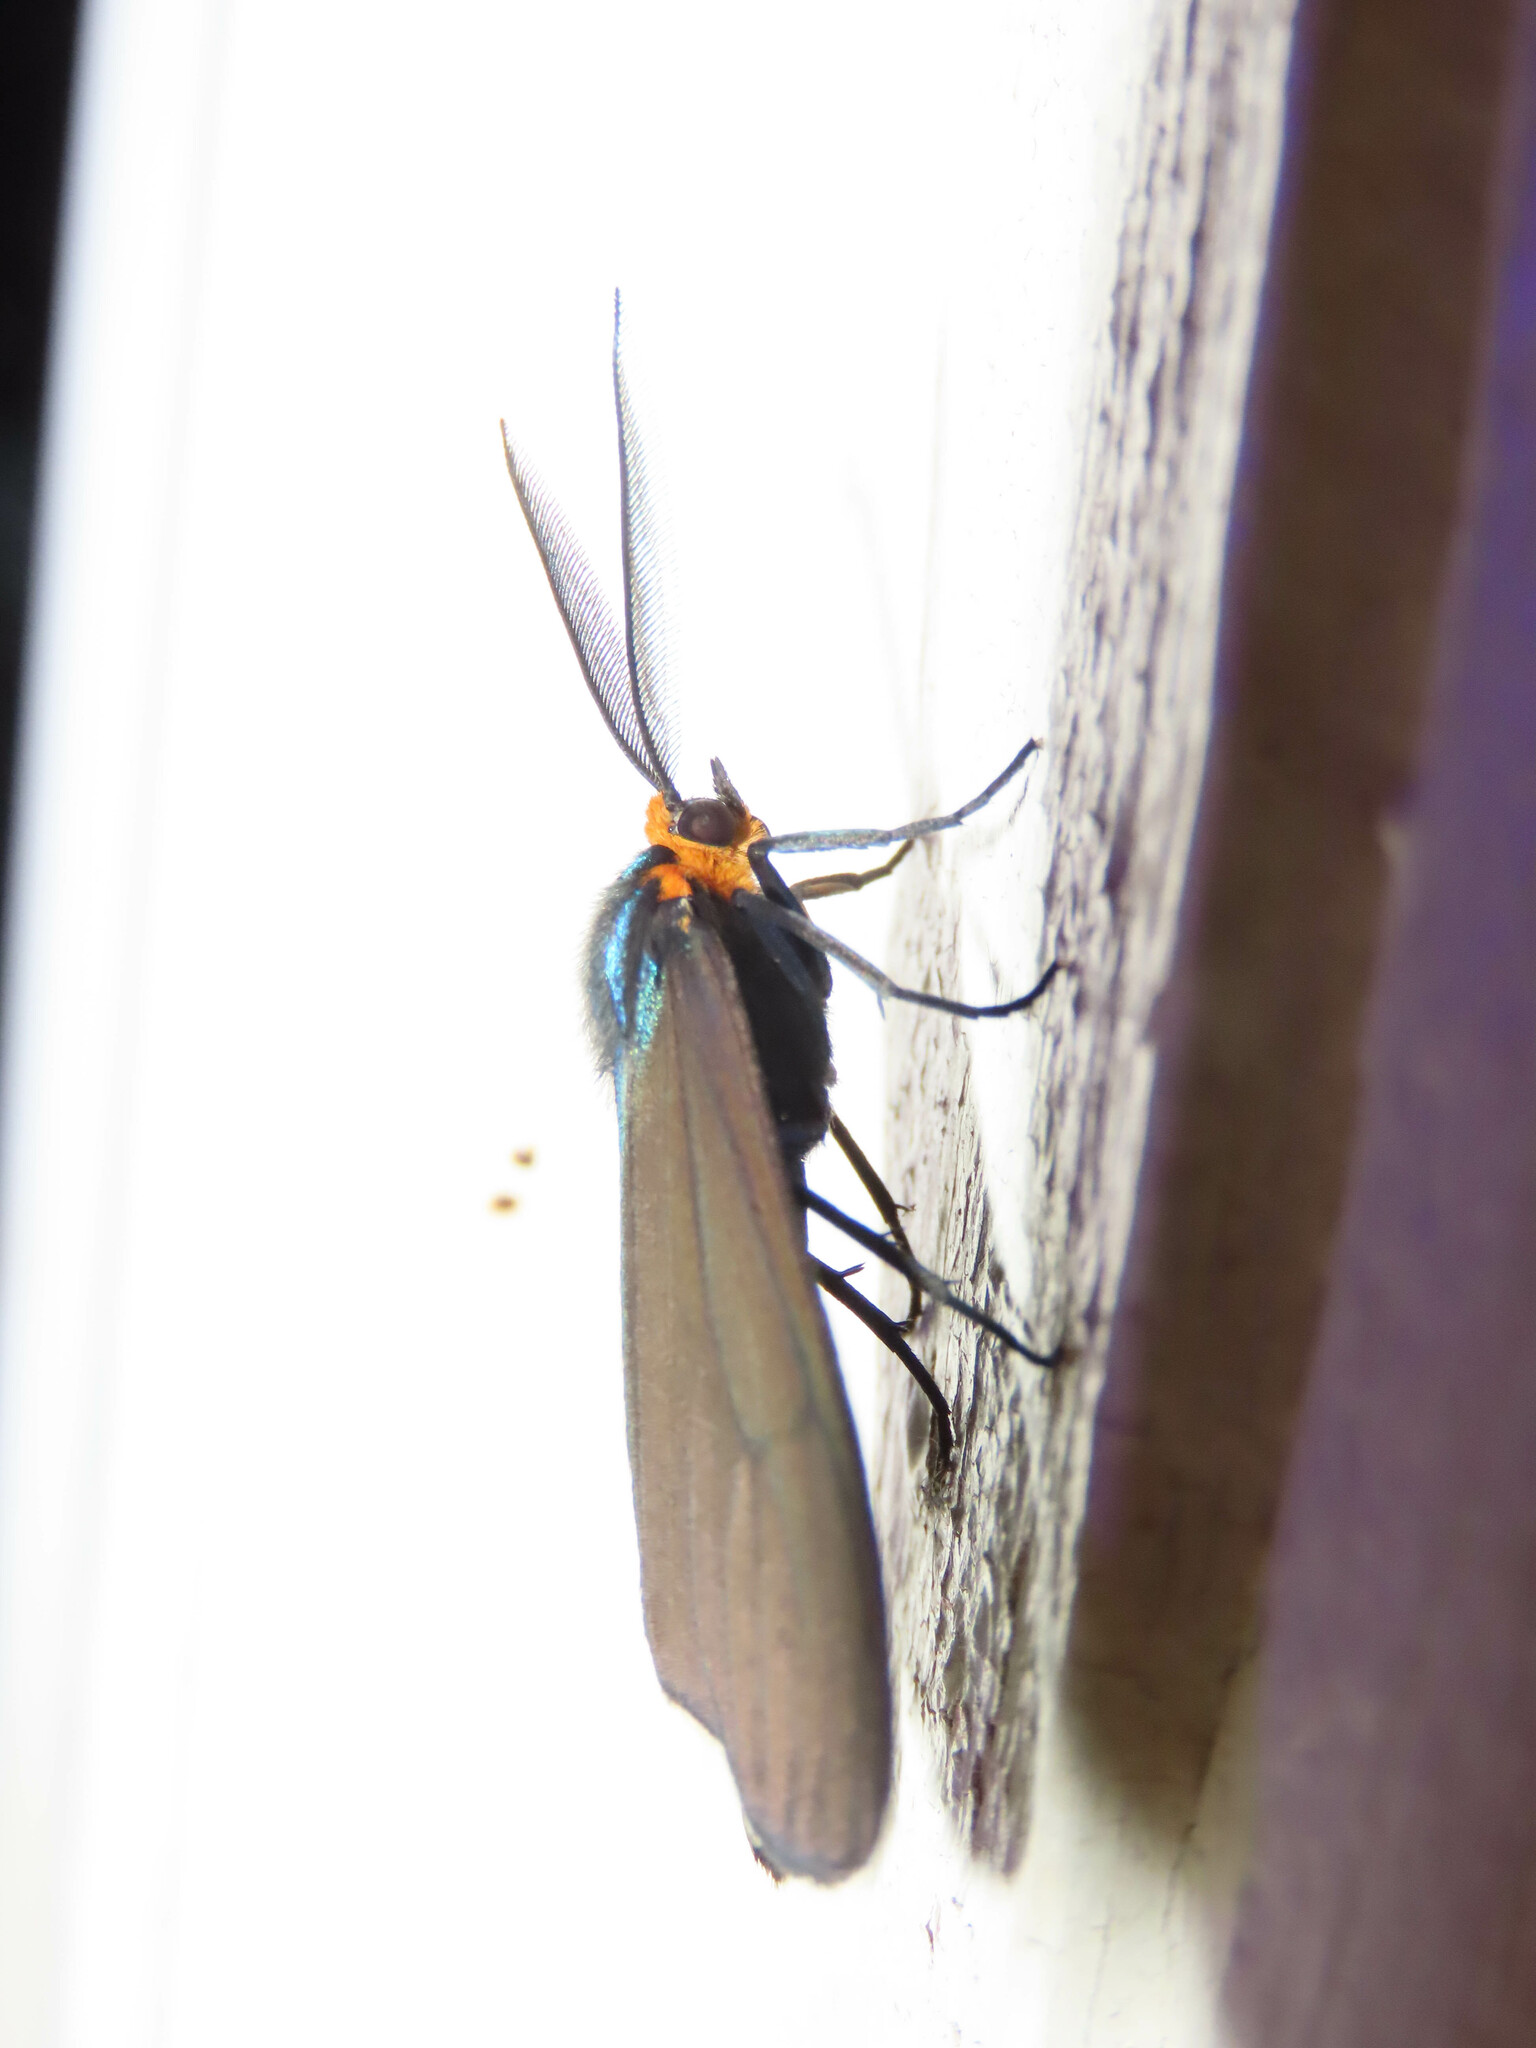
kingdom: Animalia
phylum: Arthropoda
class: Insecta
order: Lepidoptera
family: Erebidae
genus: Ctenucha
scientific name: Ctenucha virginica
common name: Virginia ctenucha moth
